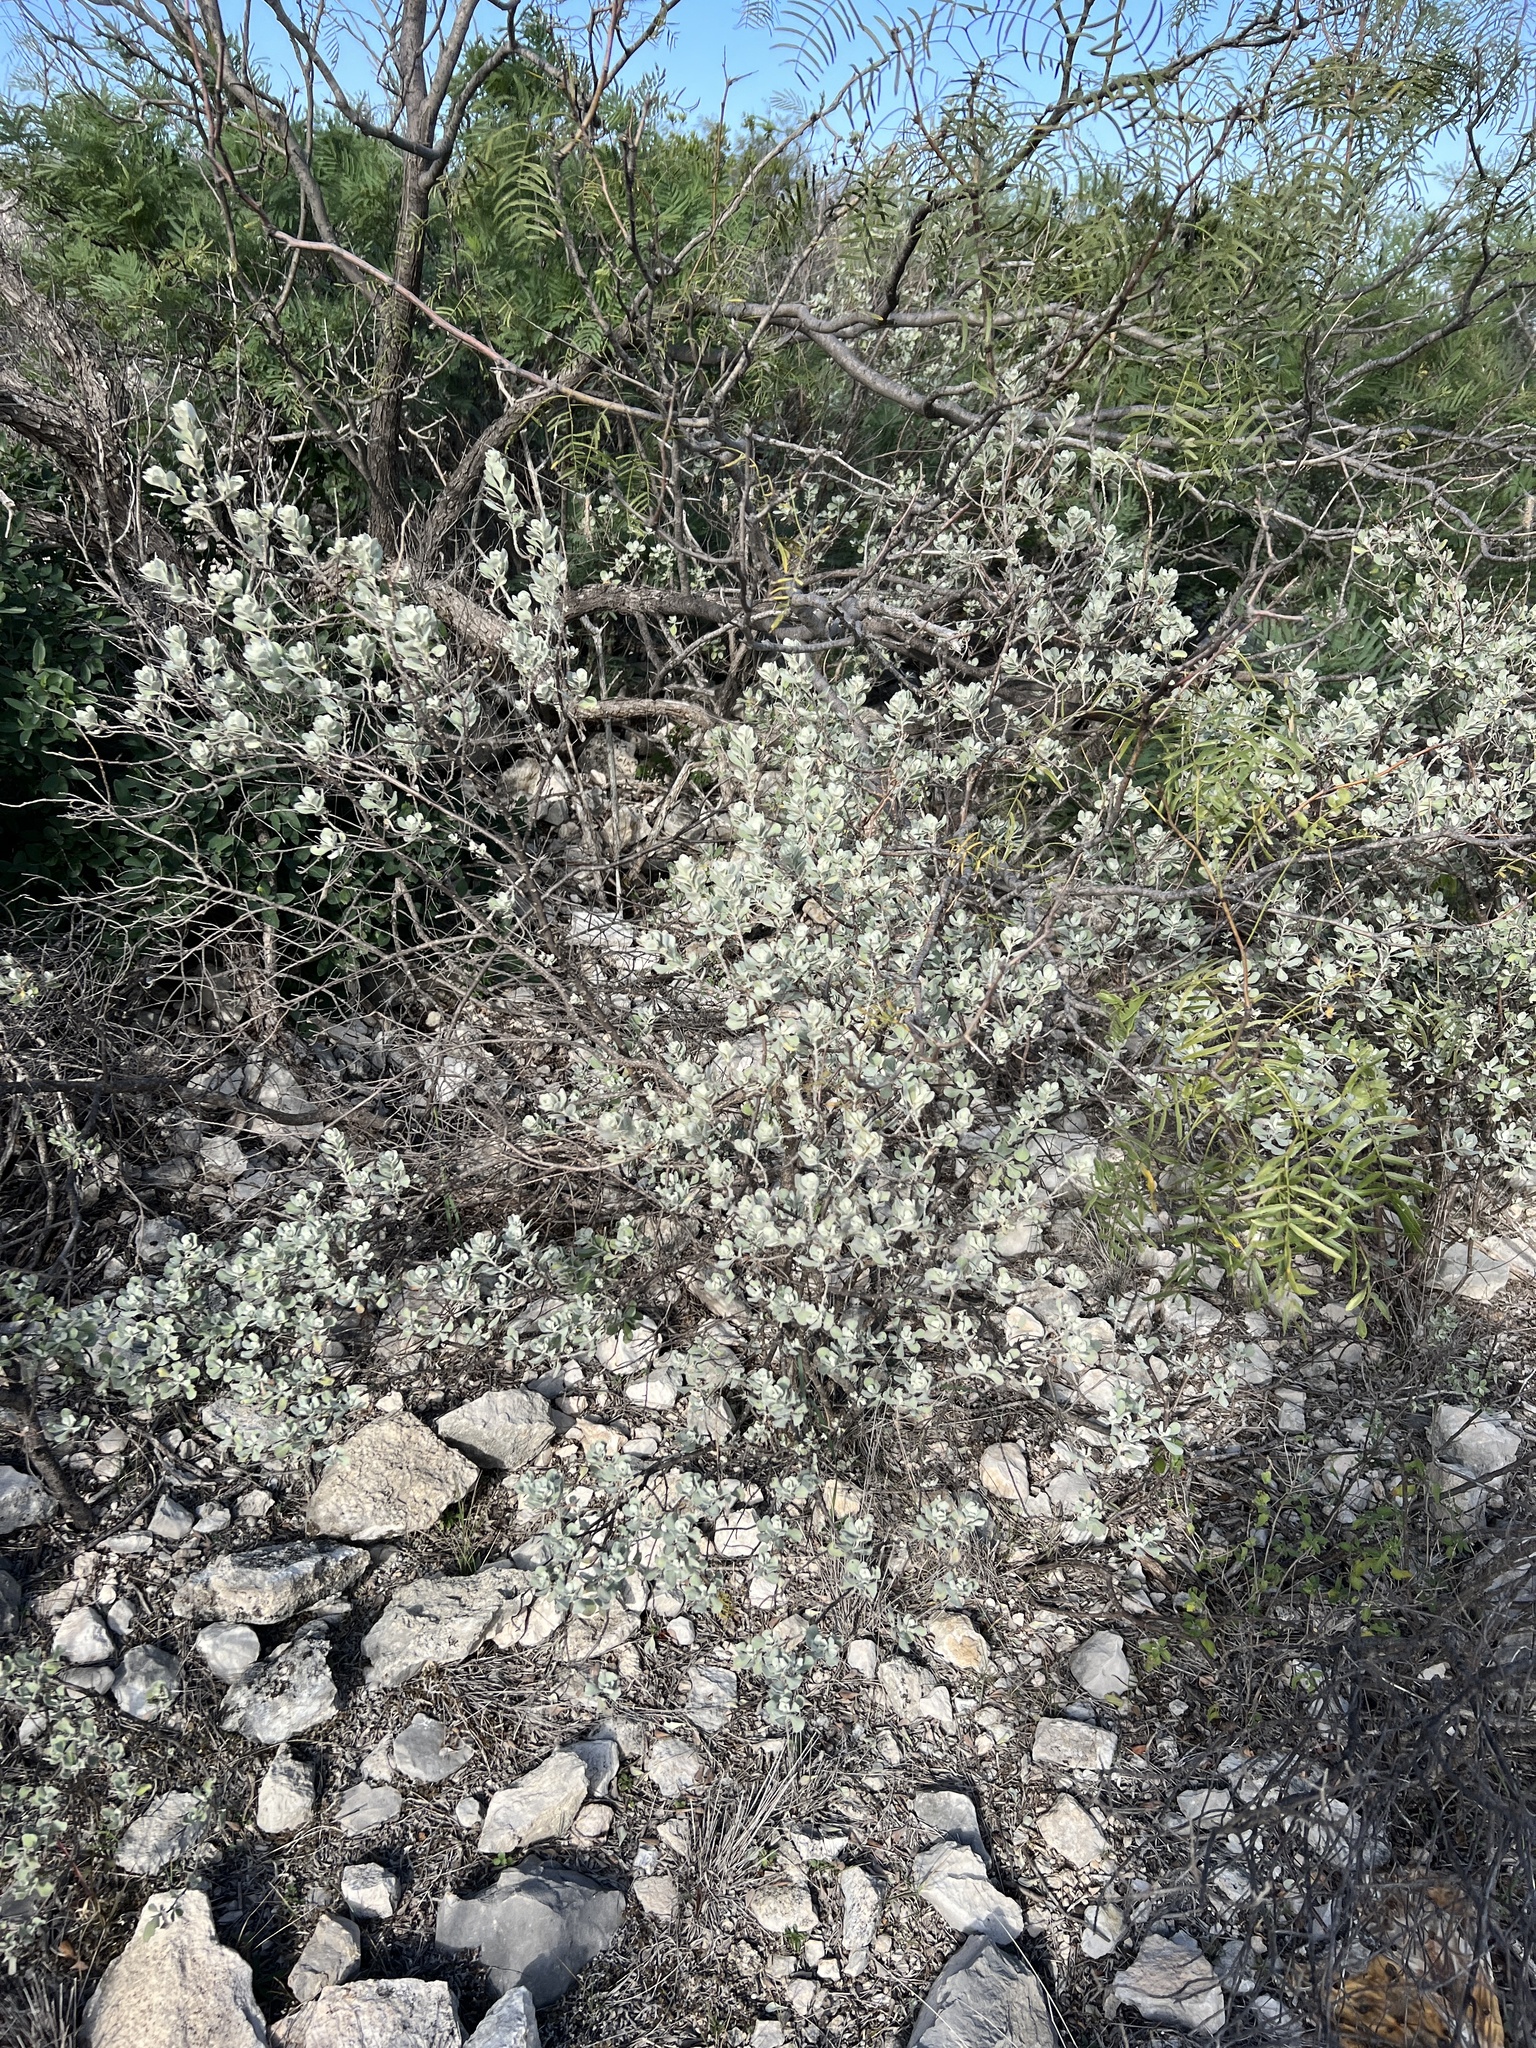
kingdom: Plantae
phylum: Tracheophyta
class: Magnoliopsida
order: Lamiales
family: Scrophulariaceae
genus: Leucophyllum
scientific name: Leucophyllum frutescens
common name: Texas silverleaf
